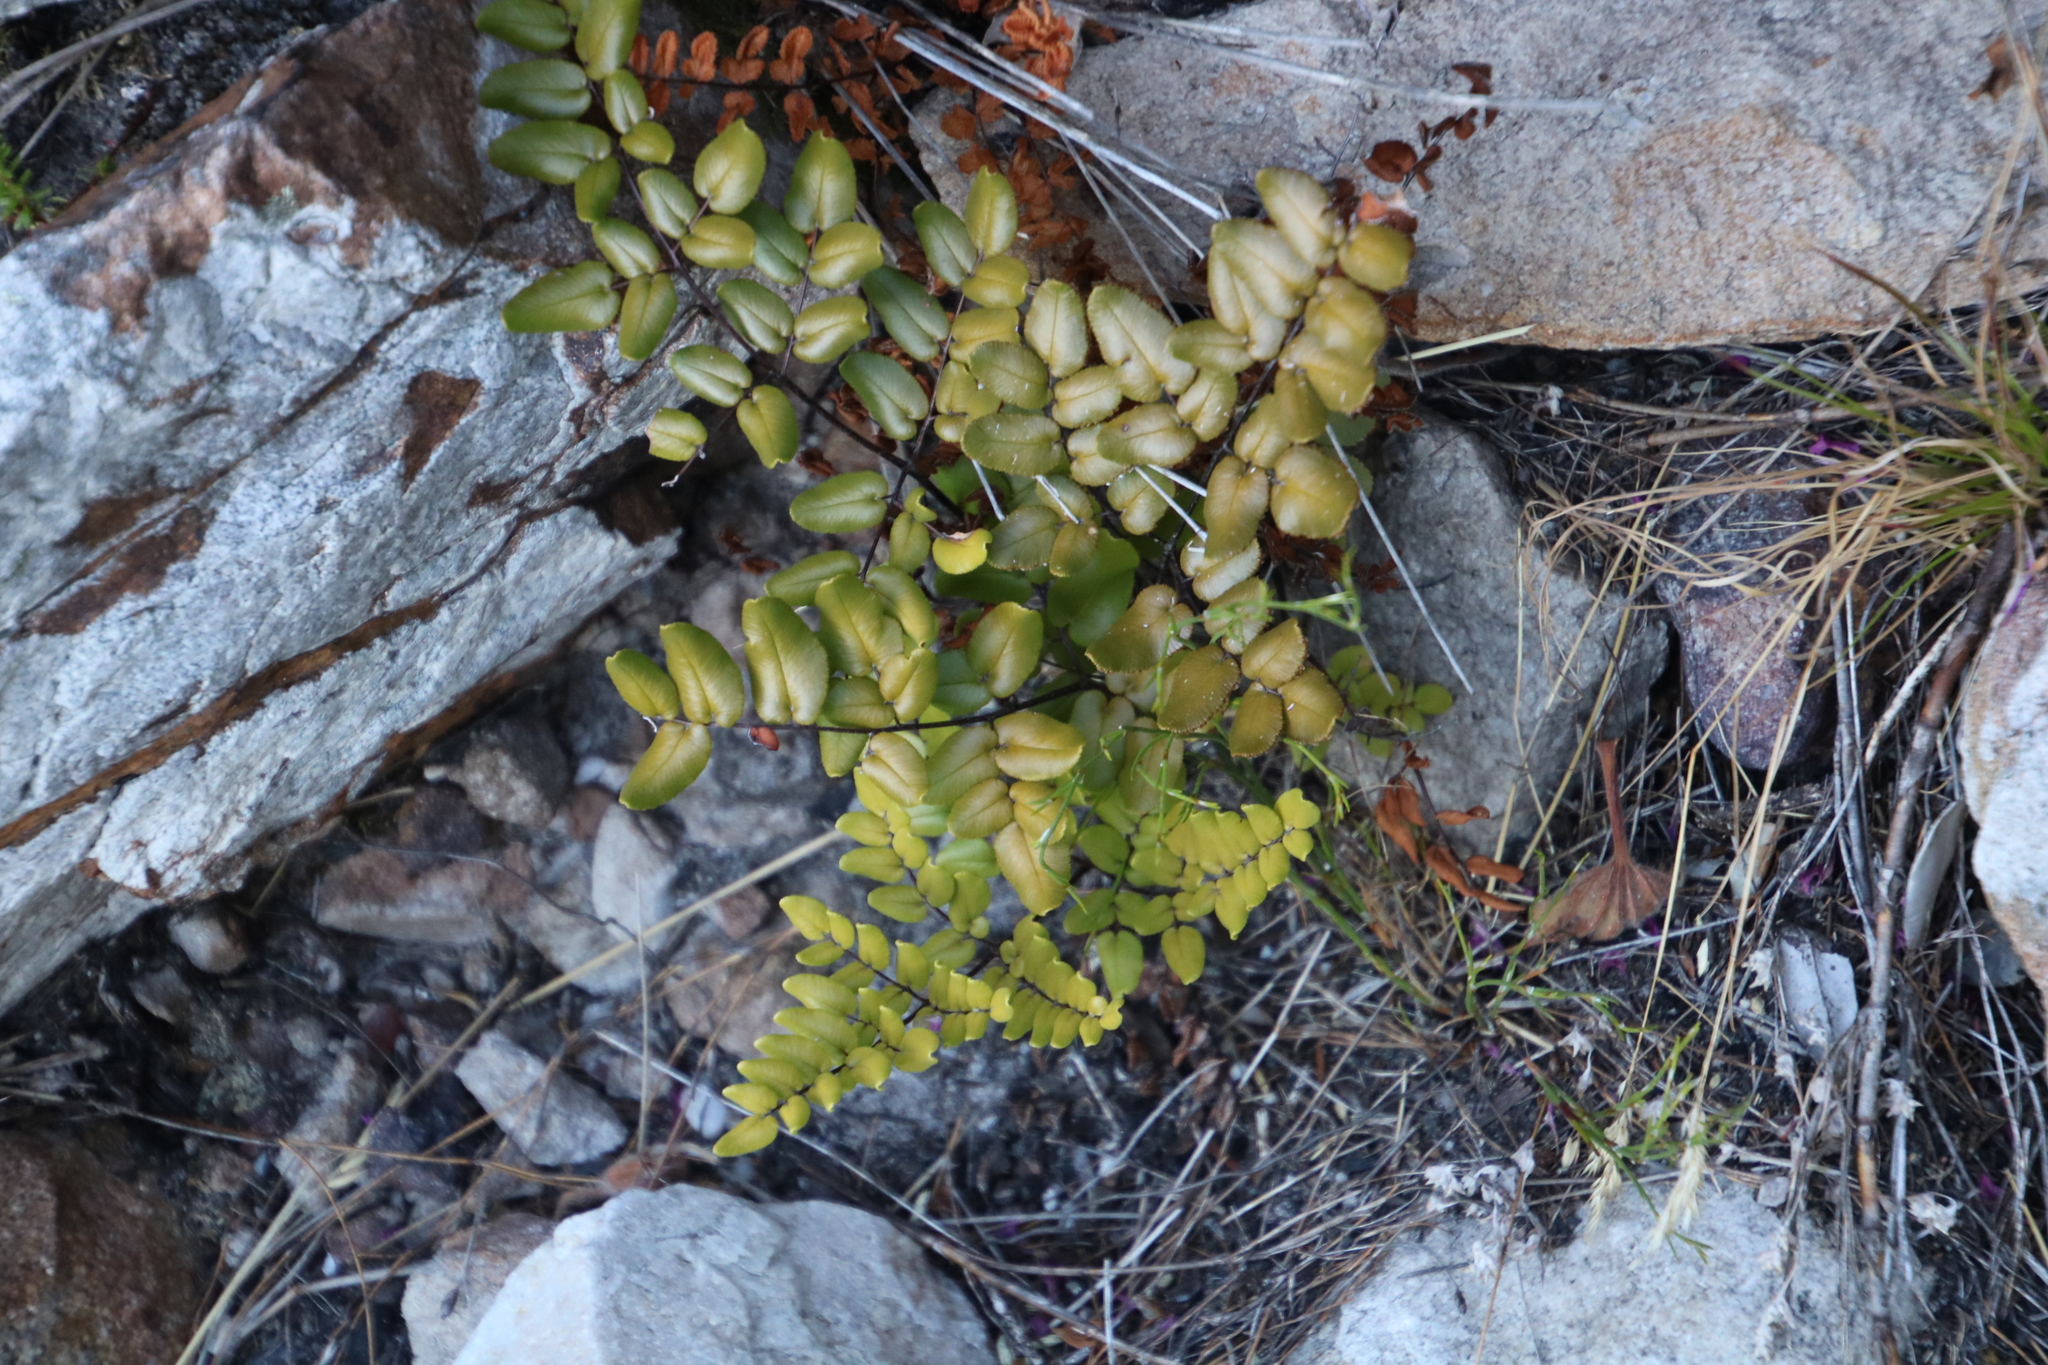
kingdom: Plantae
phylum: Tracheophyta
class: Polypodiopsida
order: Polypodiales
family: Pteridaceae
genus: Pellaea
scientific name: Pellaea pteroides
